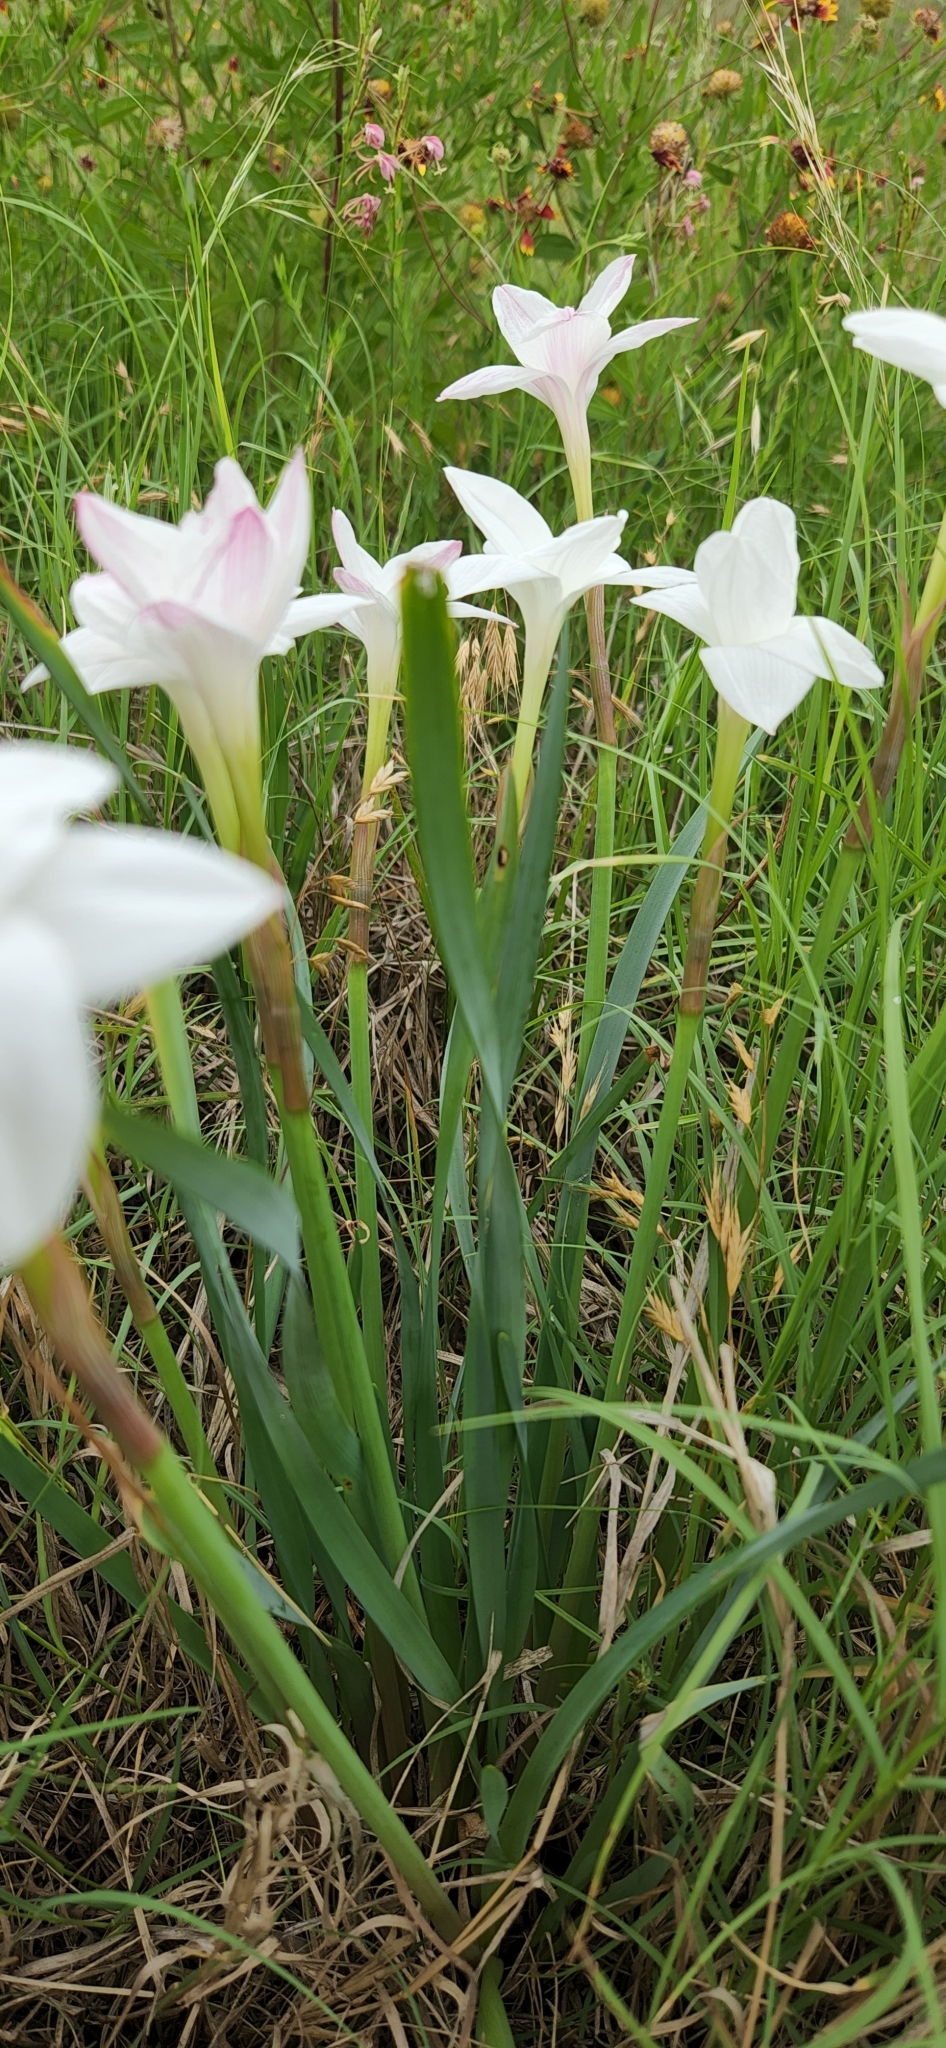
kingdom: Plantae
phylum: Tracheophyta
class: Liliopsida
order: Asparagales
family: Amaryllidaceae
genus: Zephyranthes
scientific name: Zephyranthes drummondii
